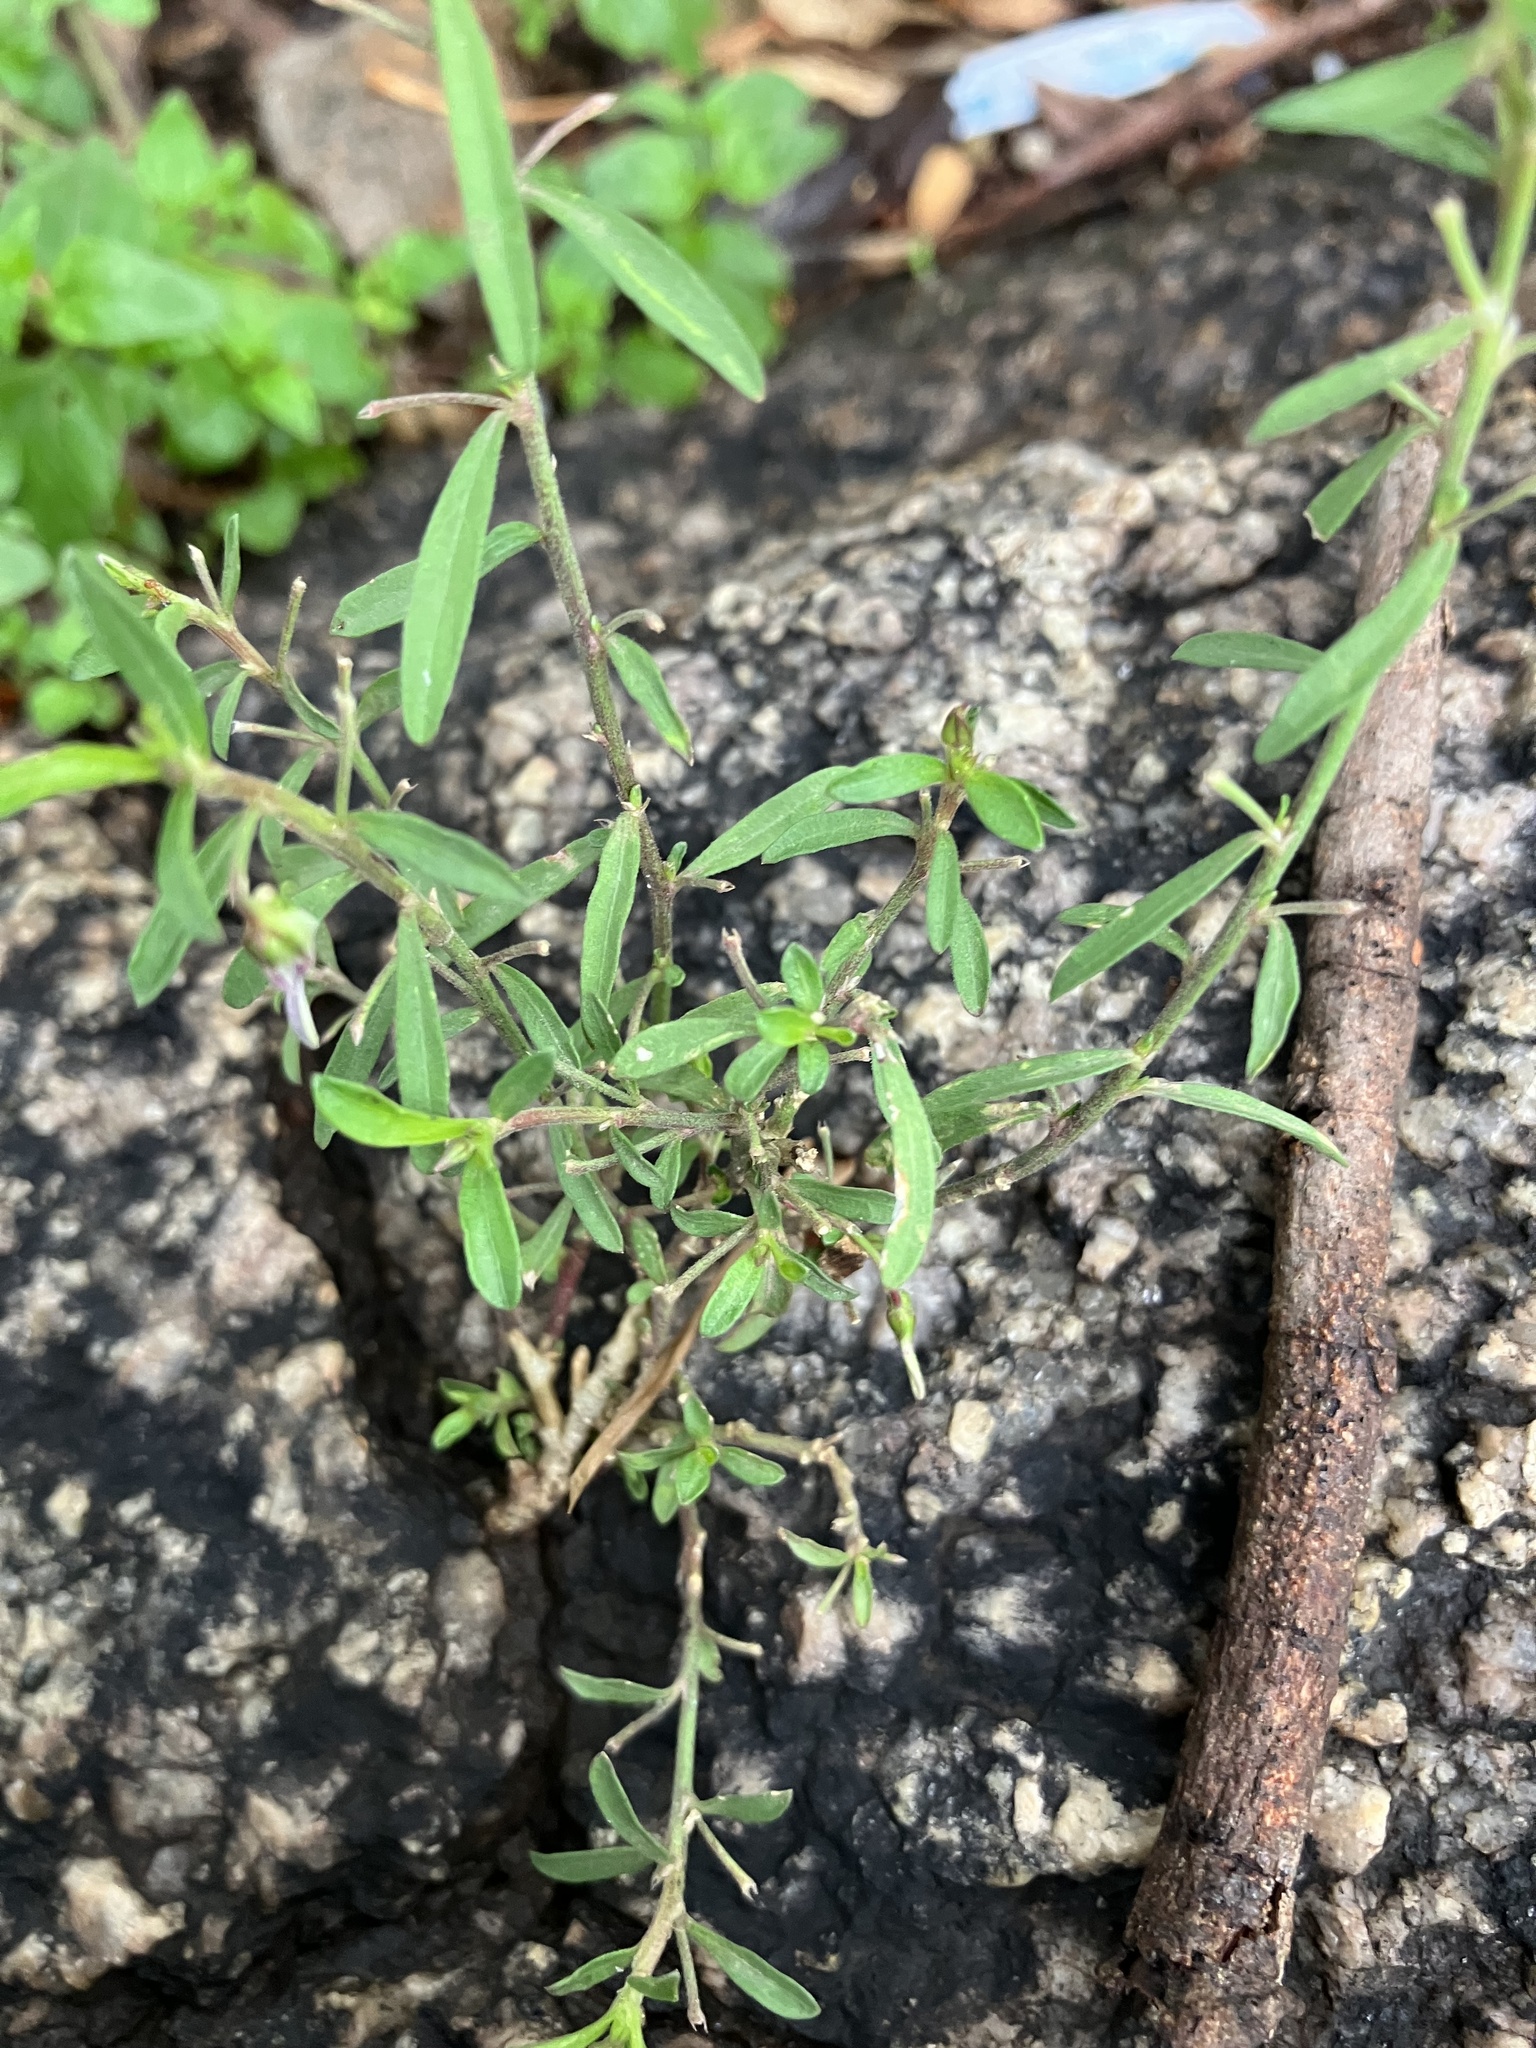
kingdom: Plantae
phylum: Tracheophyta
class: Magnoliopsida
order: Malpighiales
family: Violaceae
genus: Pigea
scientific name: Pigea enneasperma
